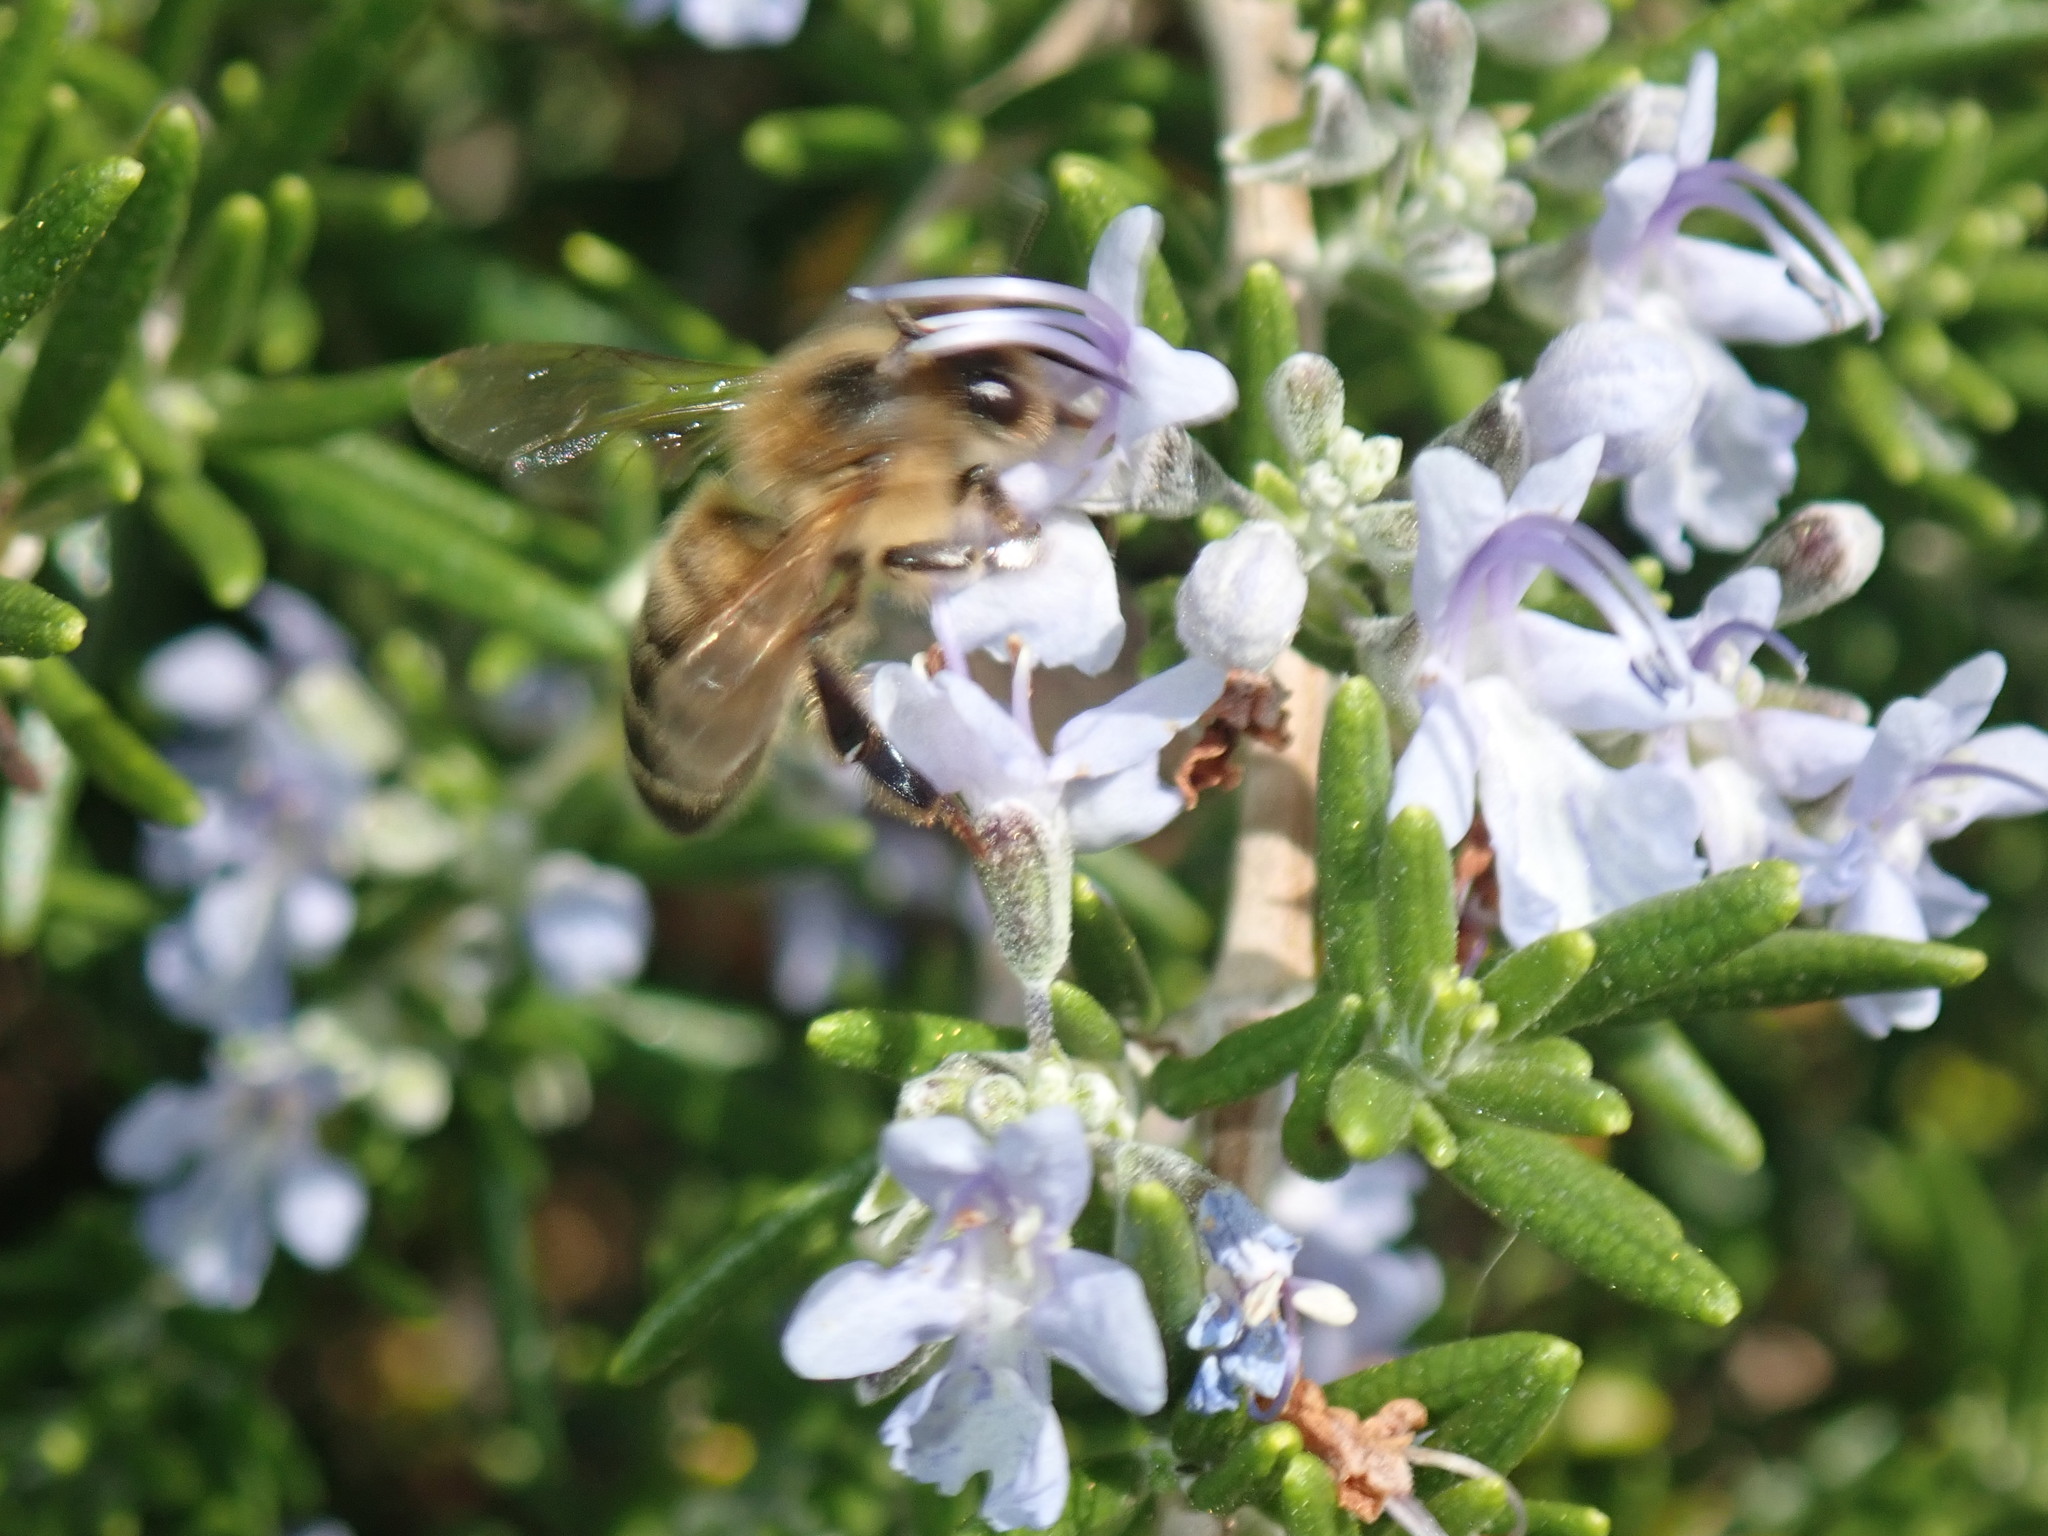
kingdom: Animalia
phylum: Arthropoda
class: Insecta
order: Hymenoptera
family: Apidae
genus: Apis
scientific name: Apis mellifera
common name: Honey bee
